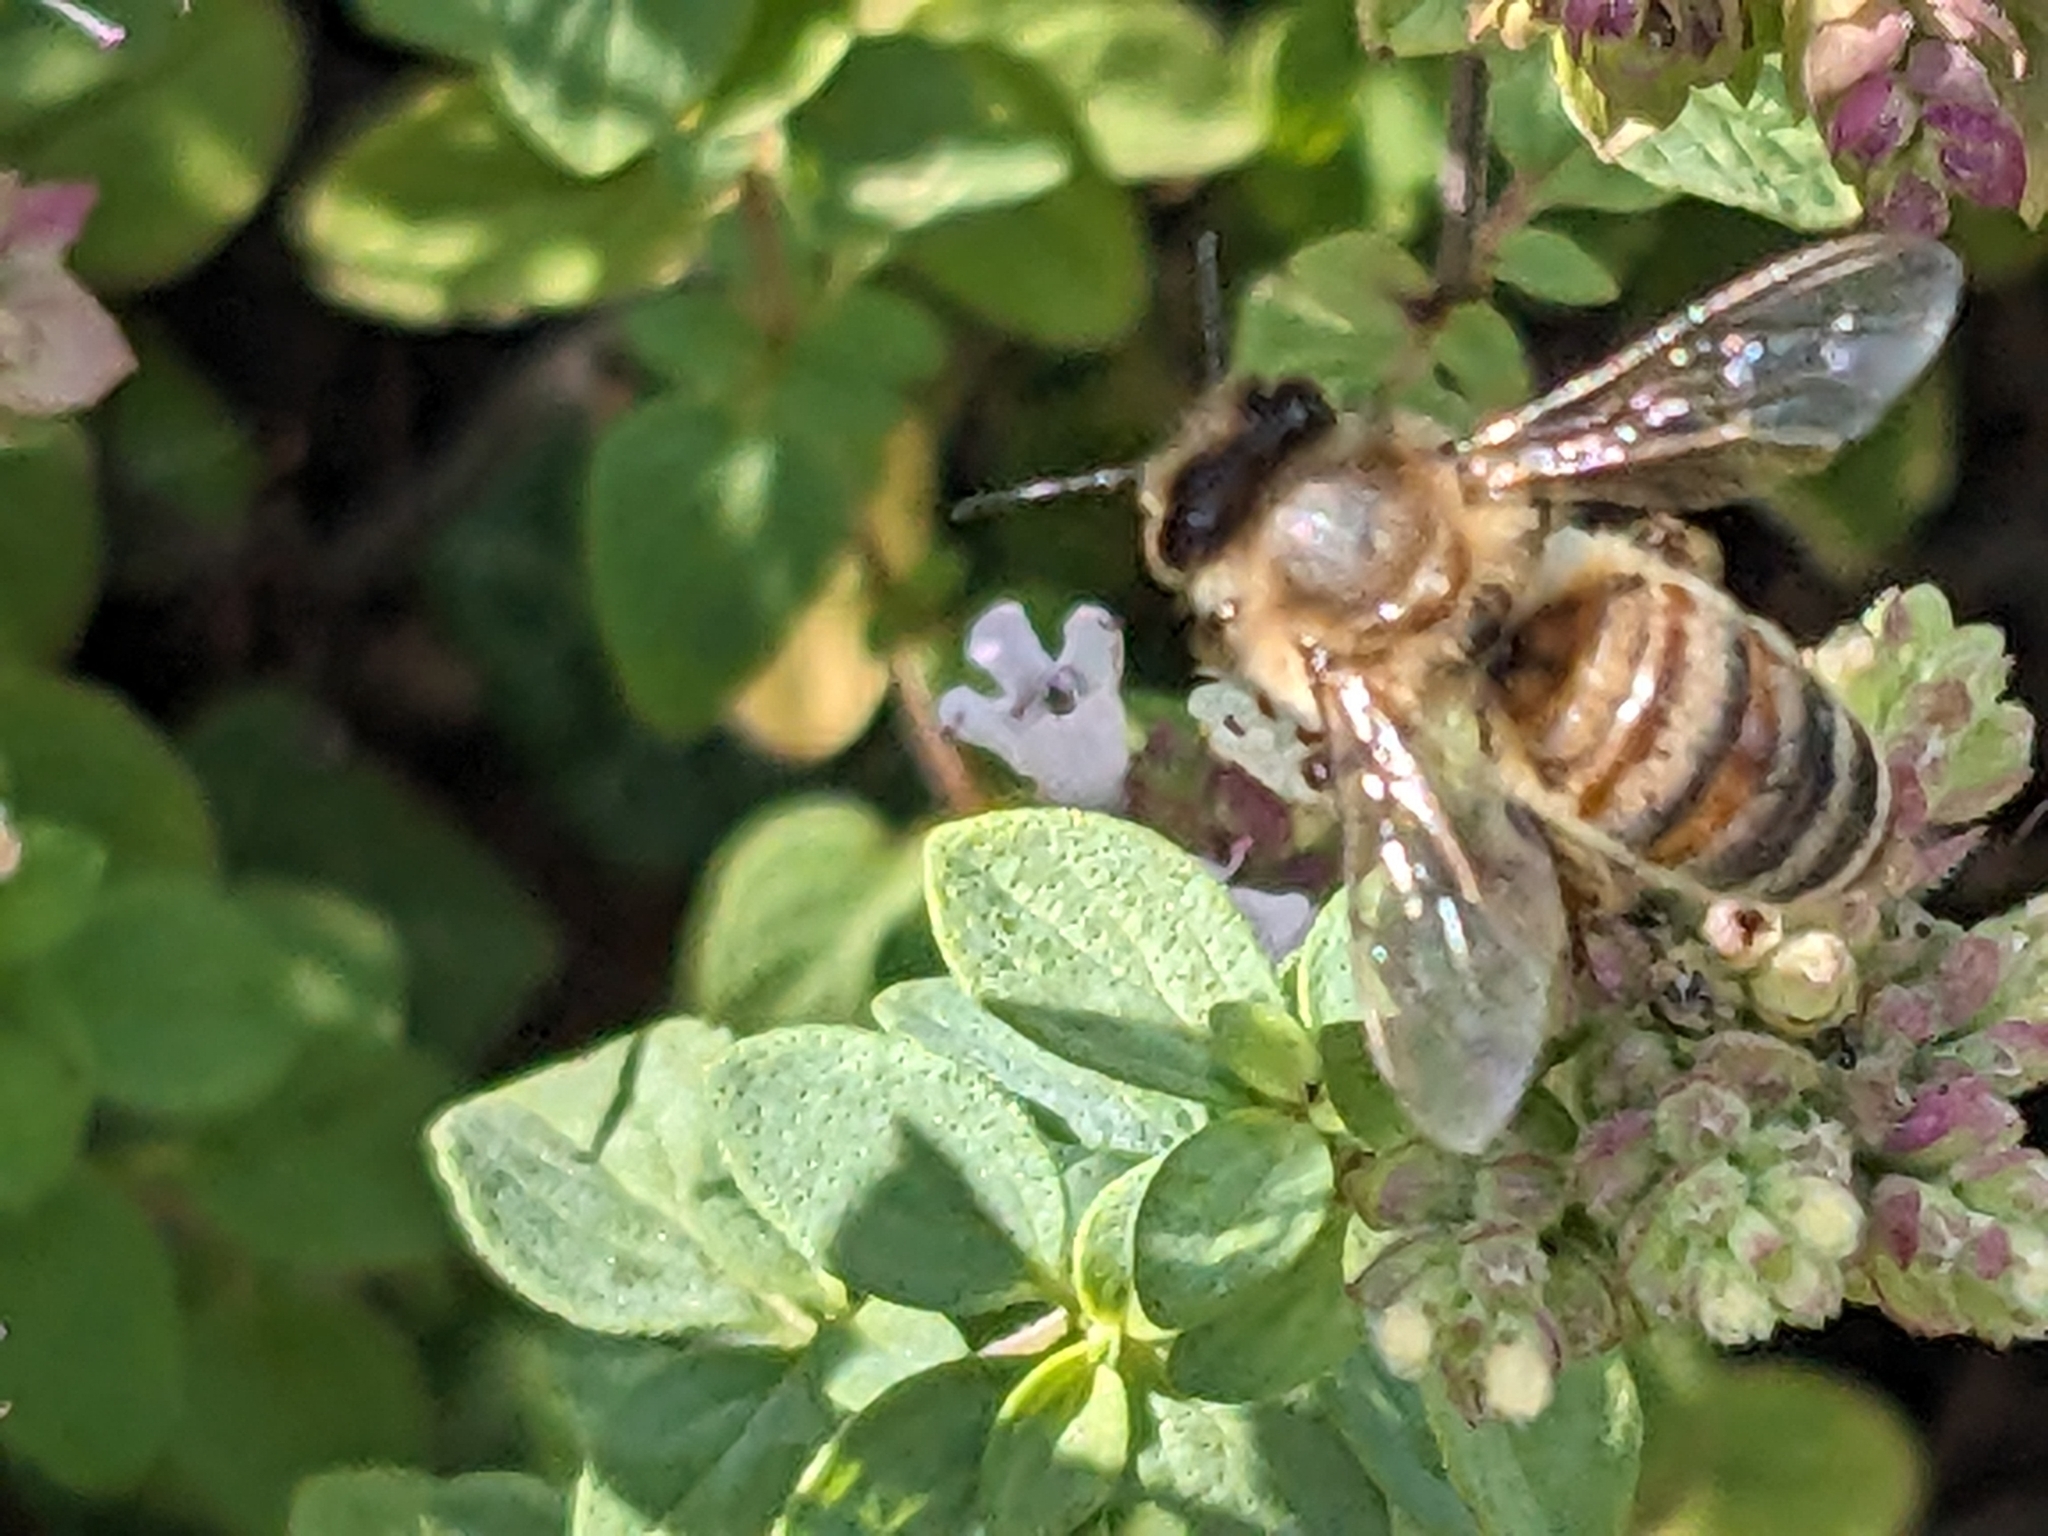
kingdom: Animalia
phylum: Arthropoda
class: Insecta
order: Hymenoptera
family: Apidae
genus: Apis
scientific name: Apis mellifera
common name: Honey bee
